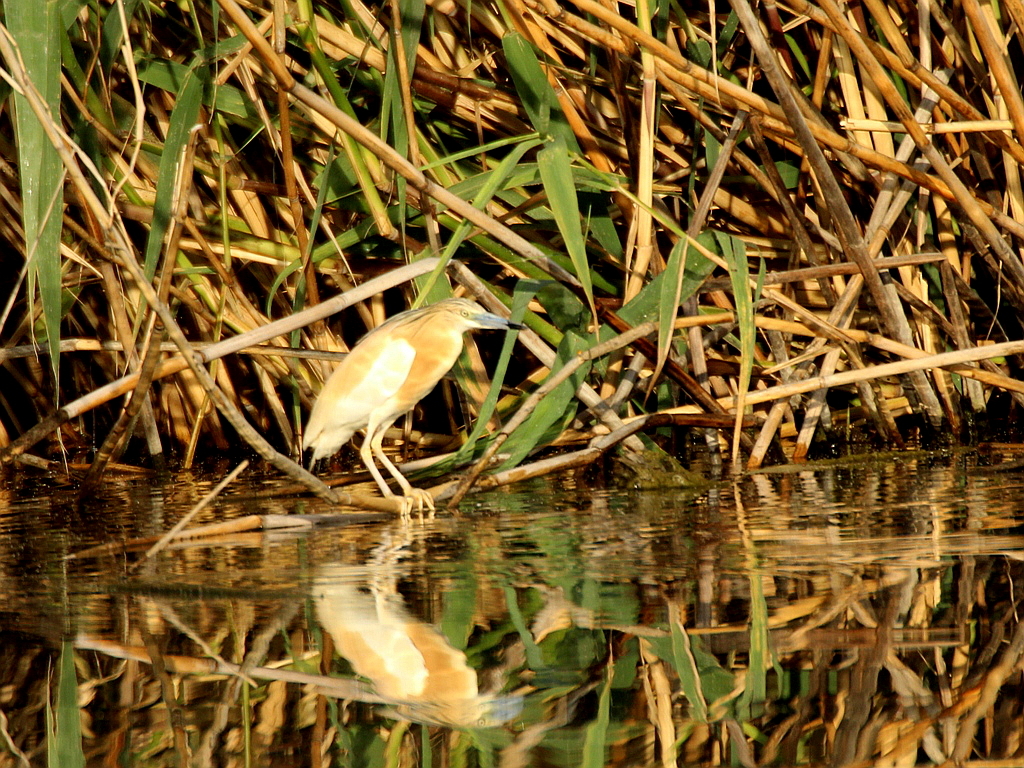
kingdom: Animalia
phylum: Chordata
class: Aves
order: Pelecaniformes
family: Ardeidae
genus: Ardeola
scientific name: Ardeola ralloides
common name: Squacco heron
